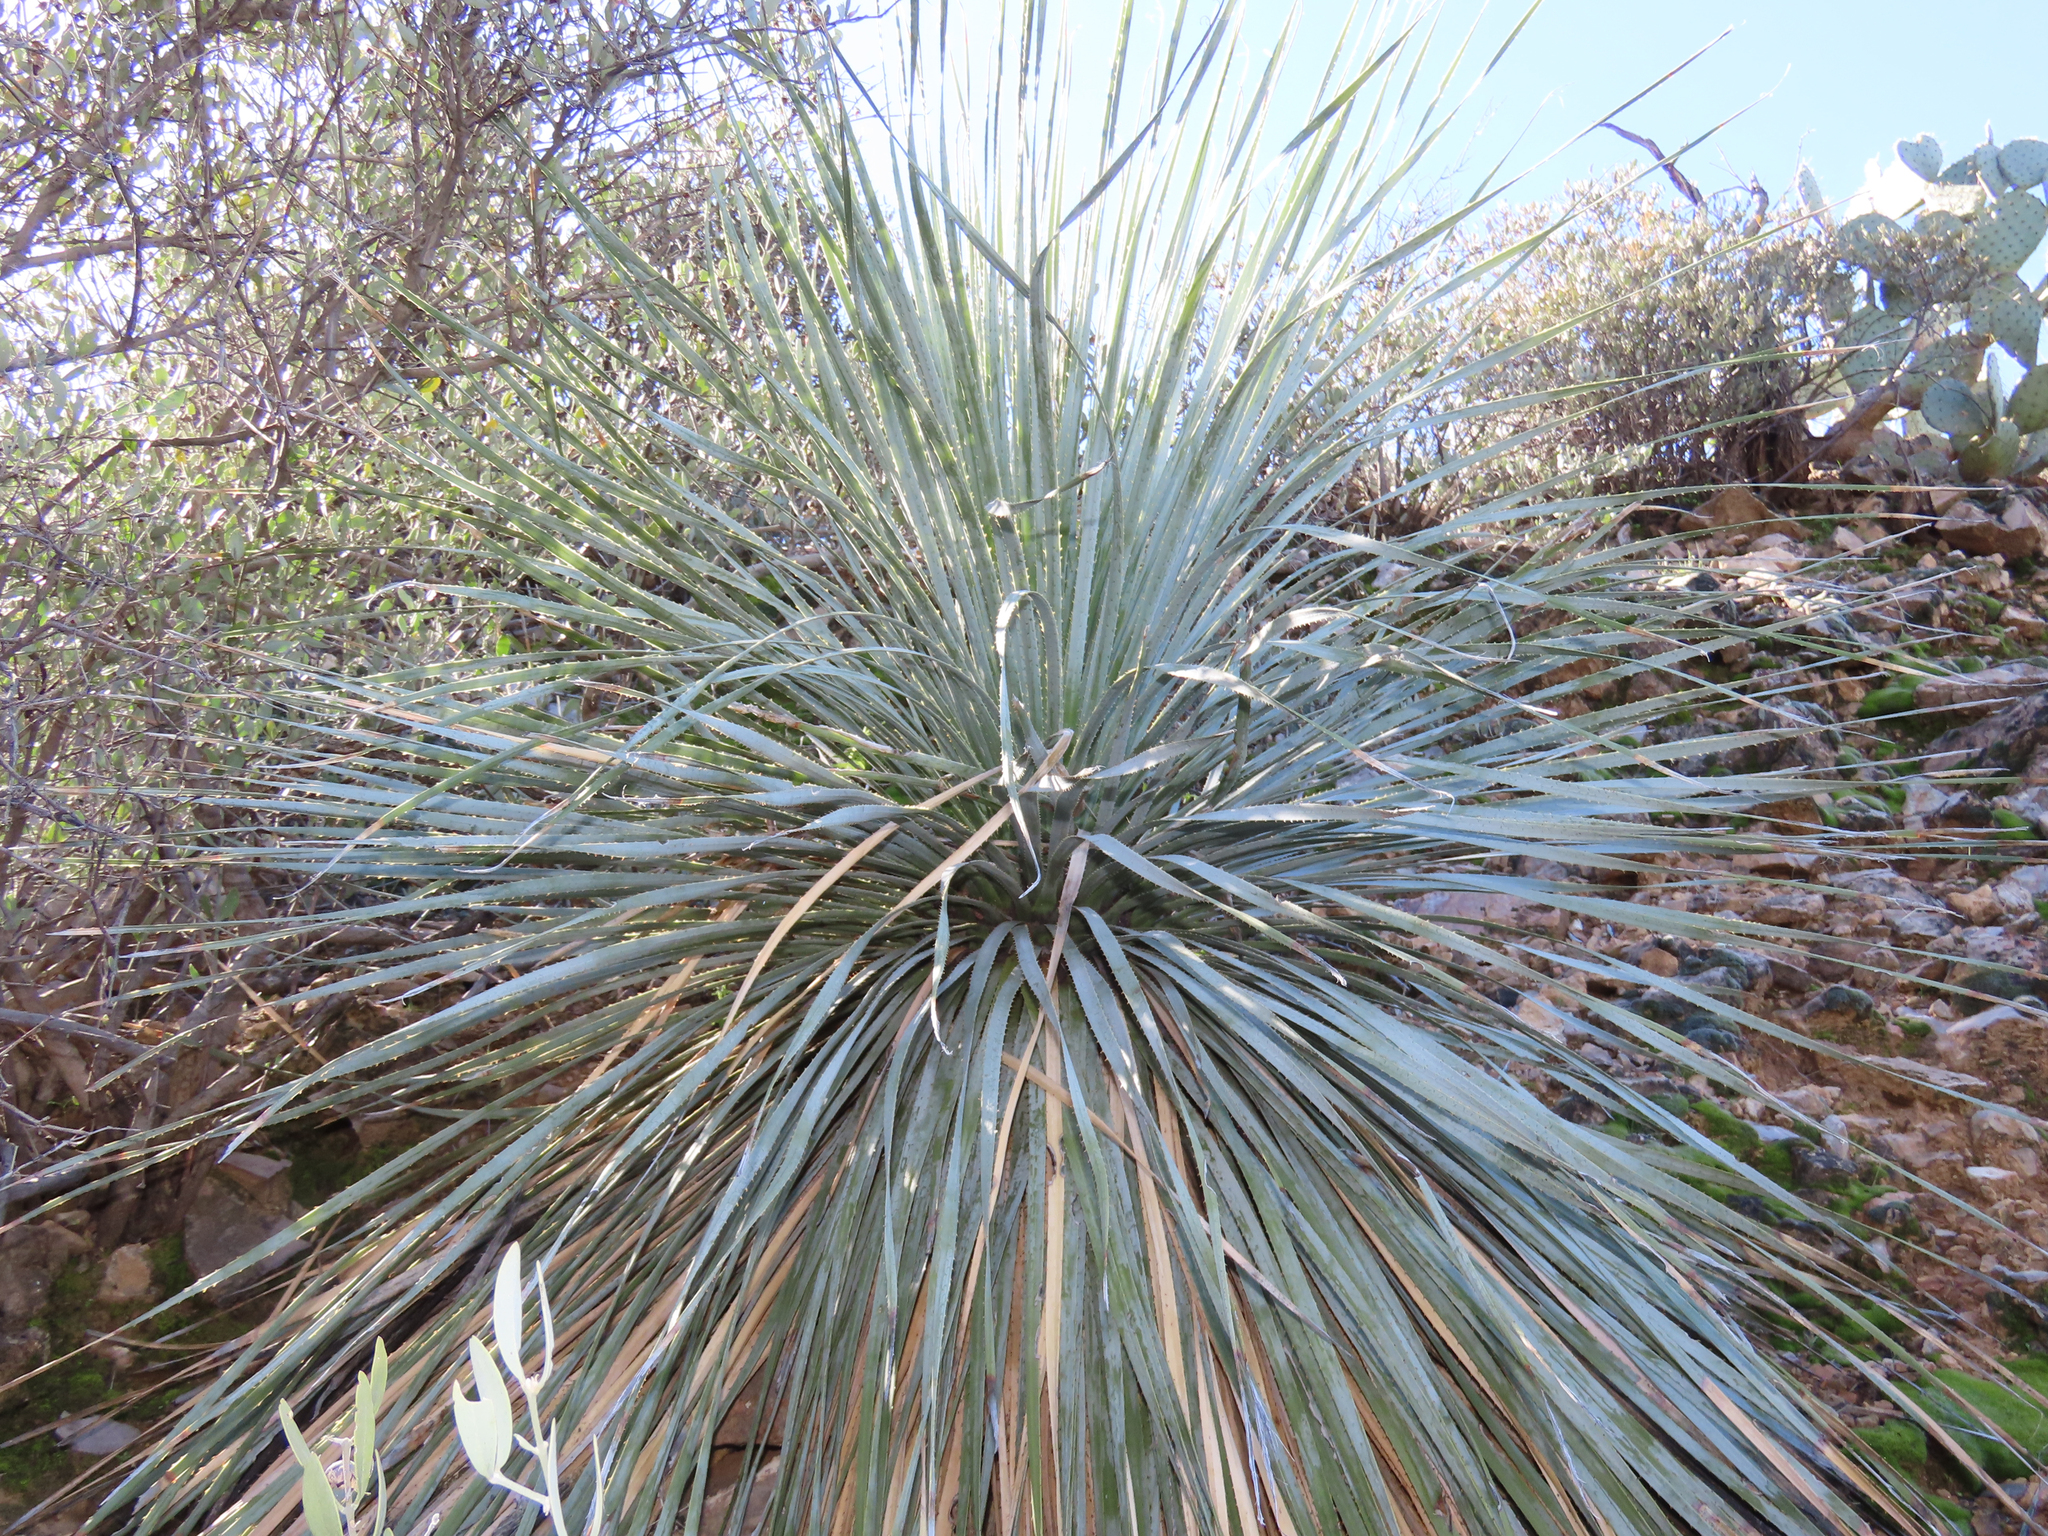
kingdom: Plantae
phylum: Tracheophyta
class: Liliopsida
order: Asparagales
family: Asparagaceae
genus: Dasylirion
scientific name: Dasylirion wheeleri
